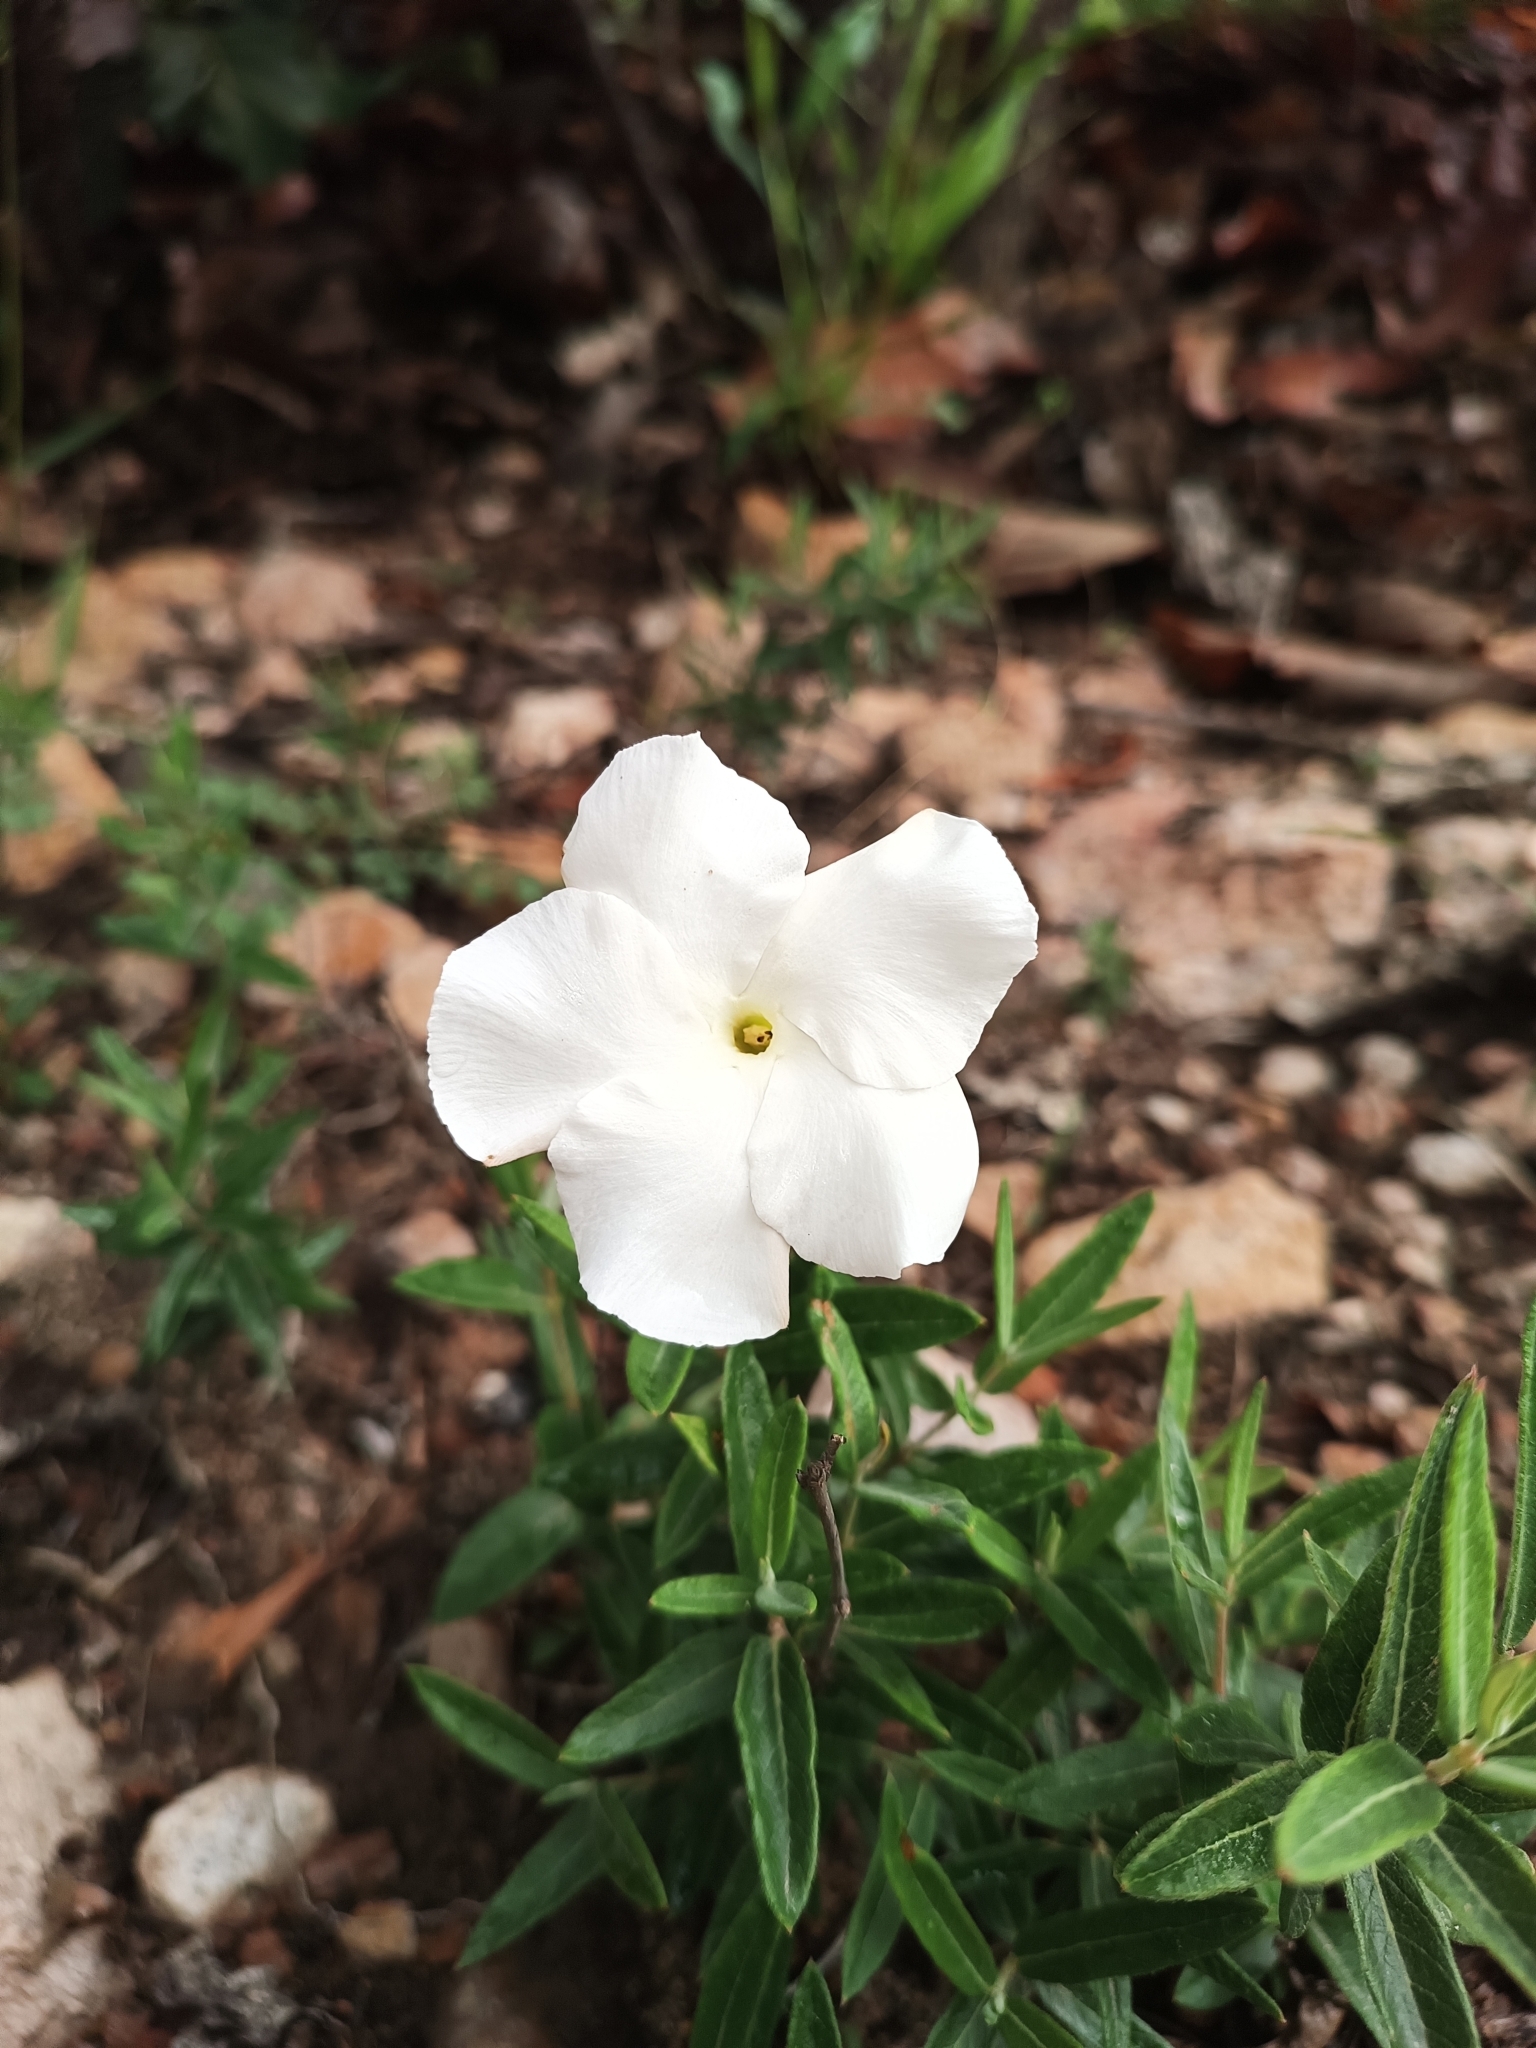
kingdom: Plantae
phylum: Tracheophyta
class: Magnoliopsida
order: Gentianales
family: Apocynaceae
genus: Mandevilla
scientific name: Mandevilla hypoleuca
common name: Davis mountain rocktrumpet
